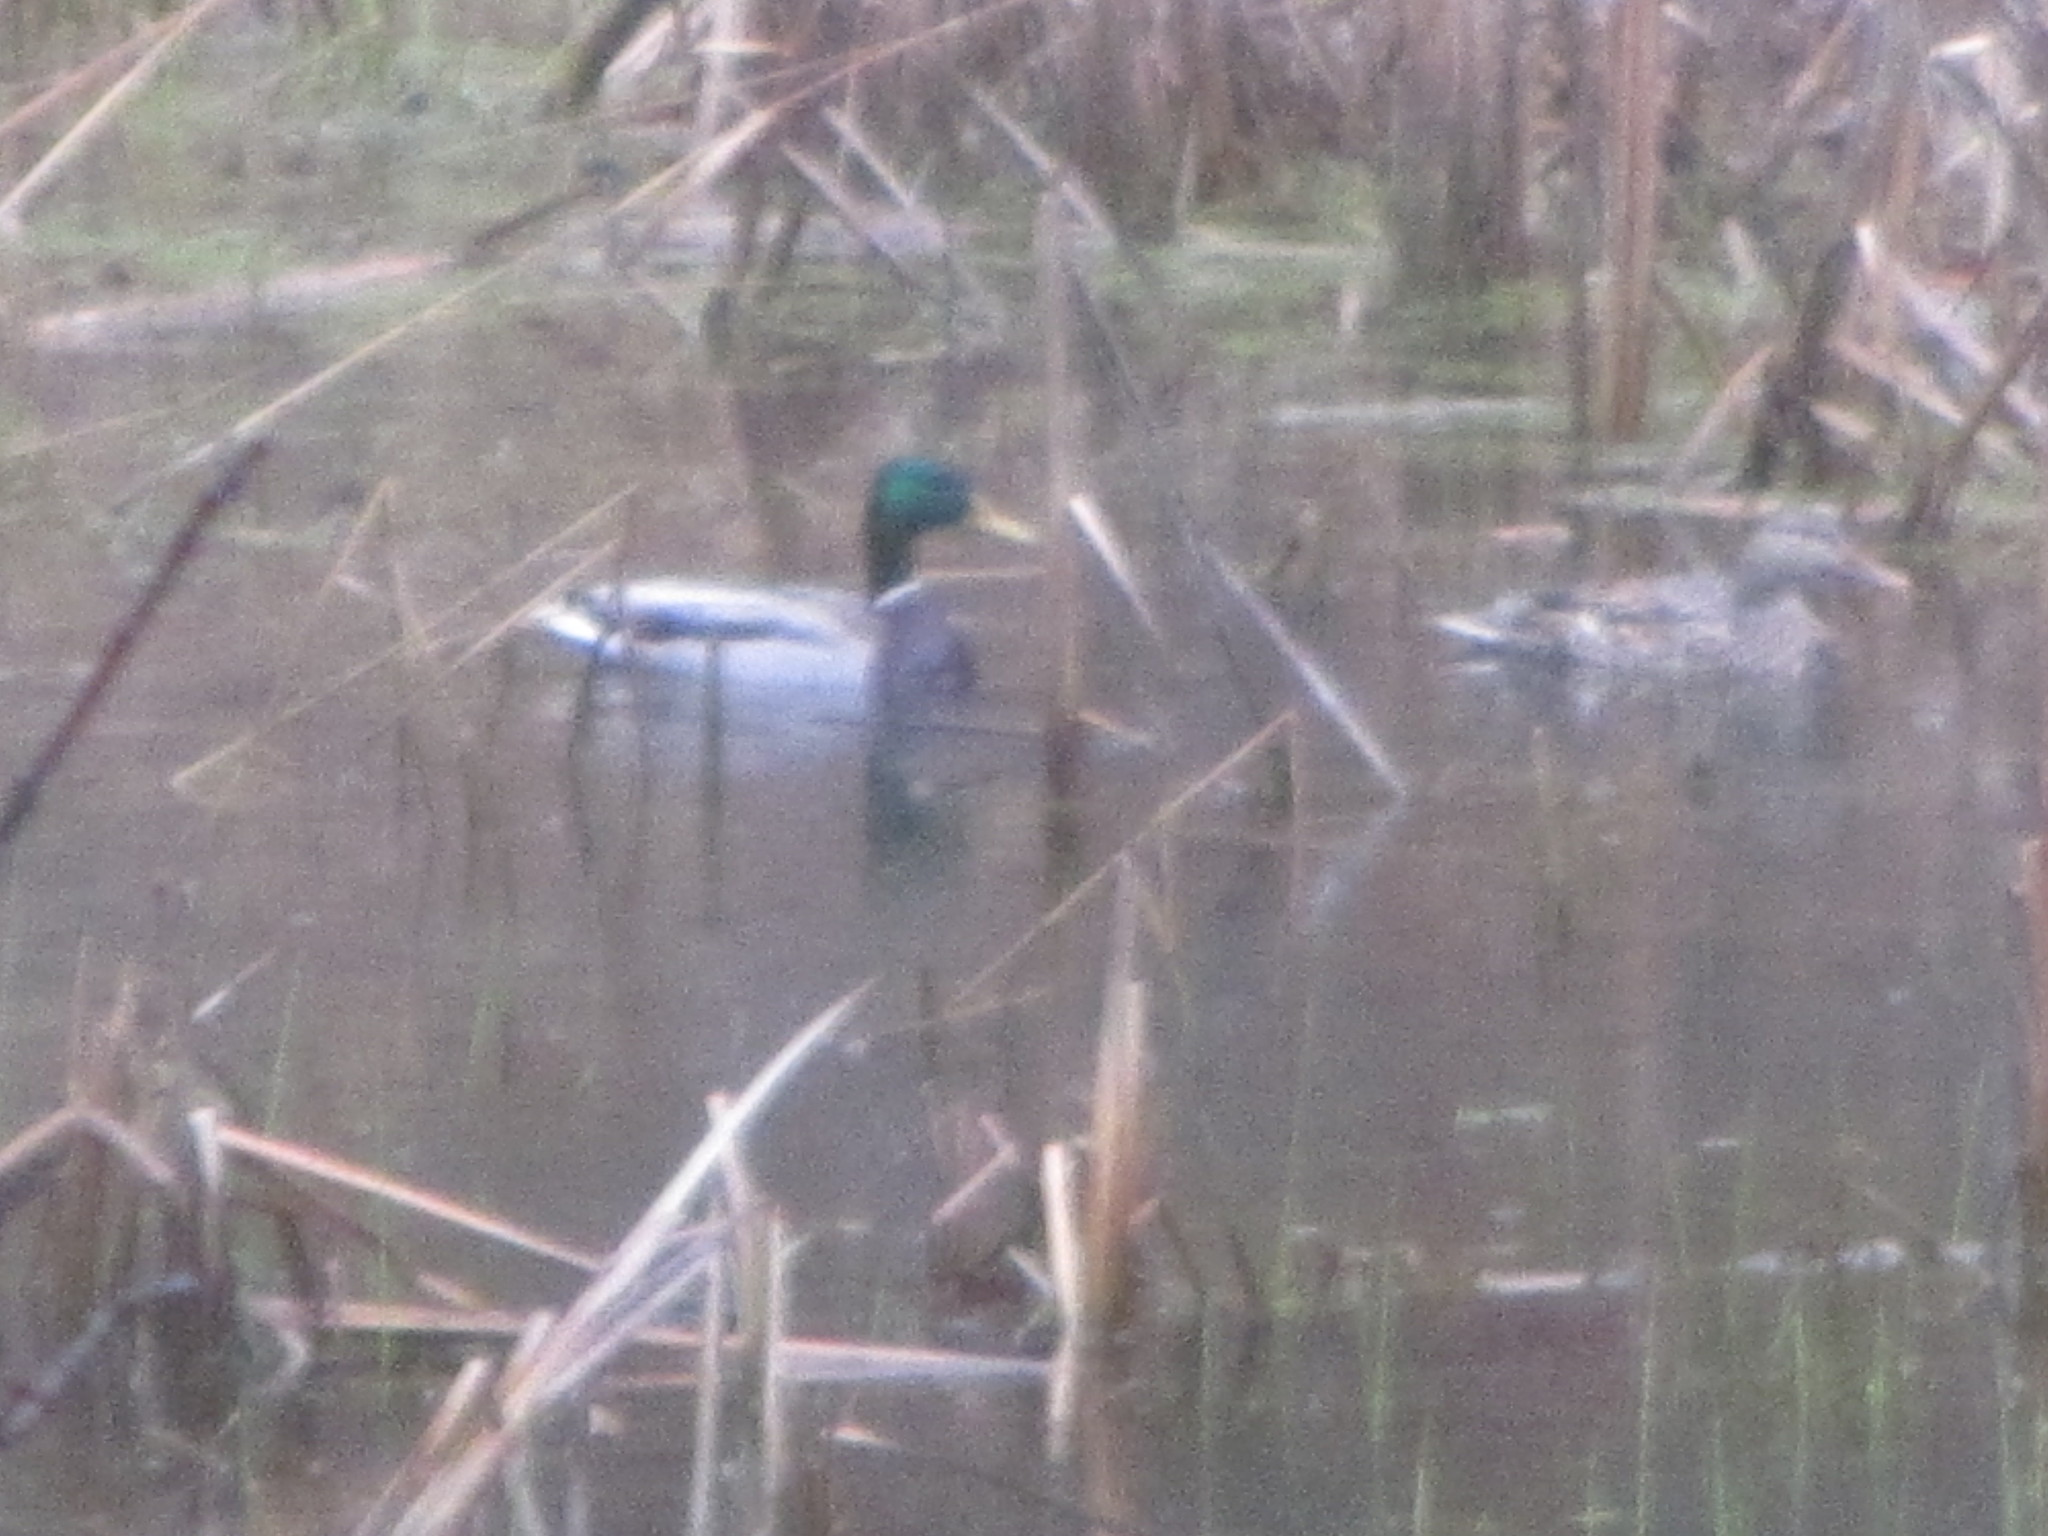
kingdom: Animalia
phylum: Chordata
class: Aves
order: Anseriformes
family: Anatidae
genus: Anas
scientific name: Anas platyrhynchos
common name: Mallard
